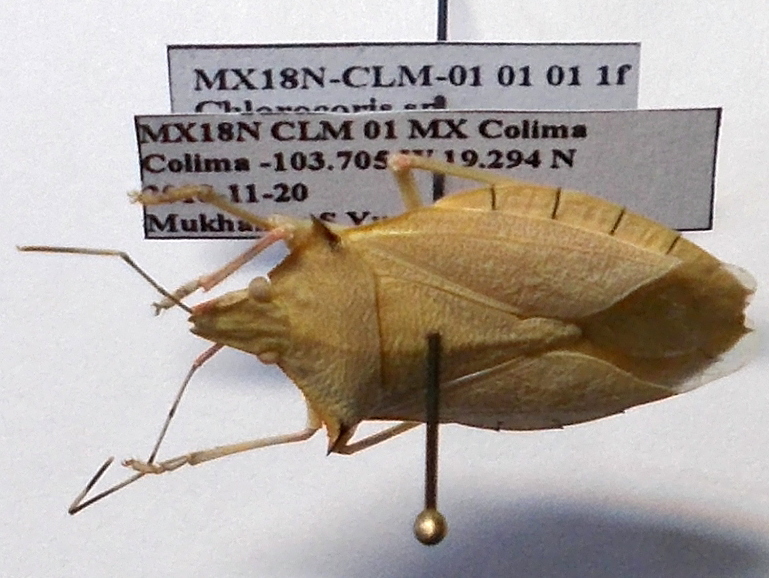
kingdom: Animalia
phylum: Arthropoda
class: Insecta
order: Hemiptera
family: Pentatomidae
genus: Chlorocoris
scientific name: Chlorocoris distinctus
